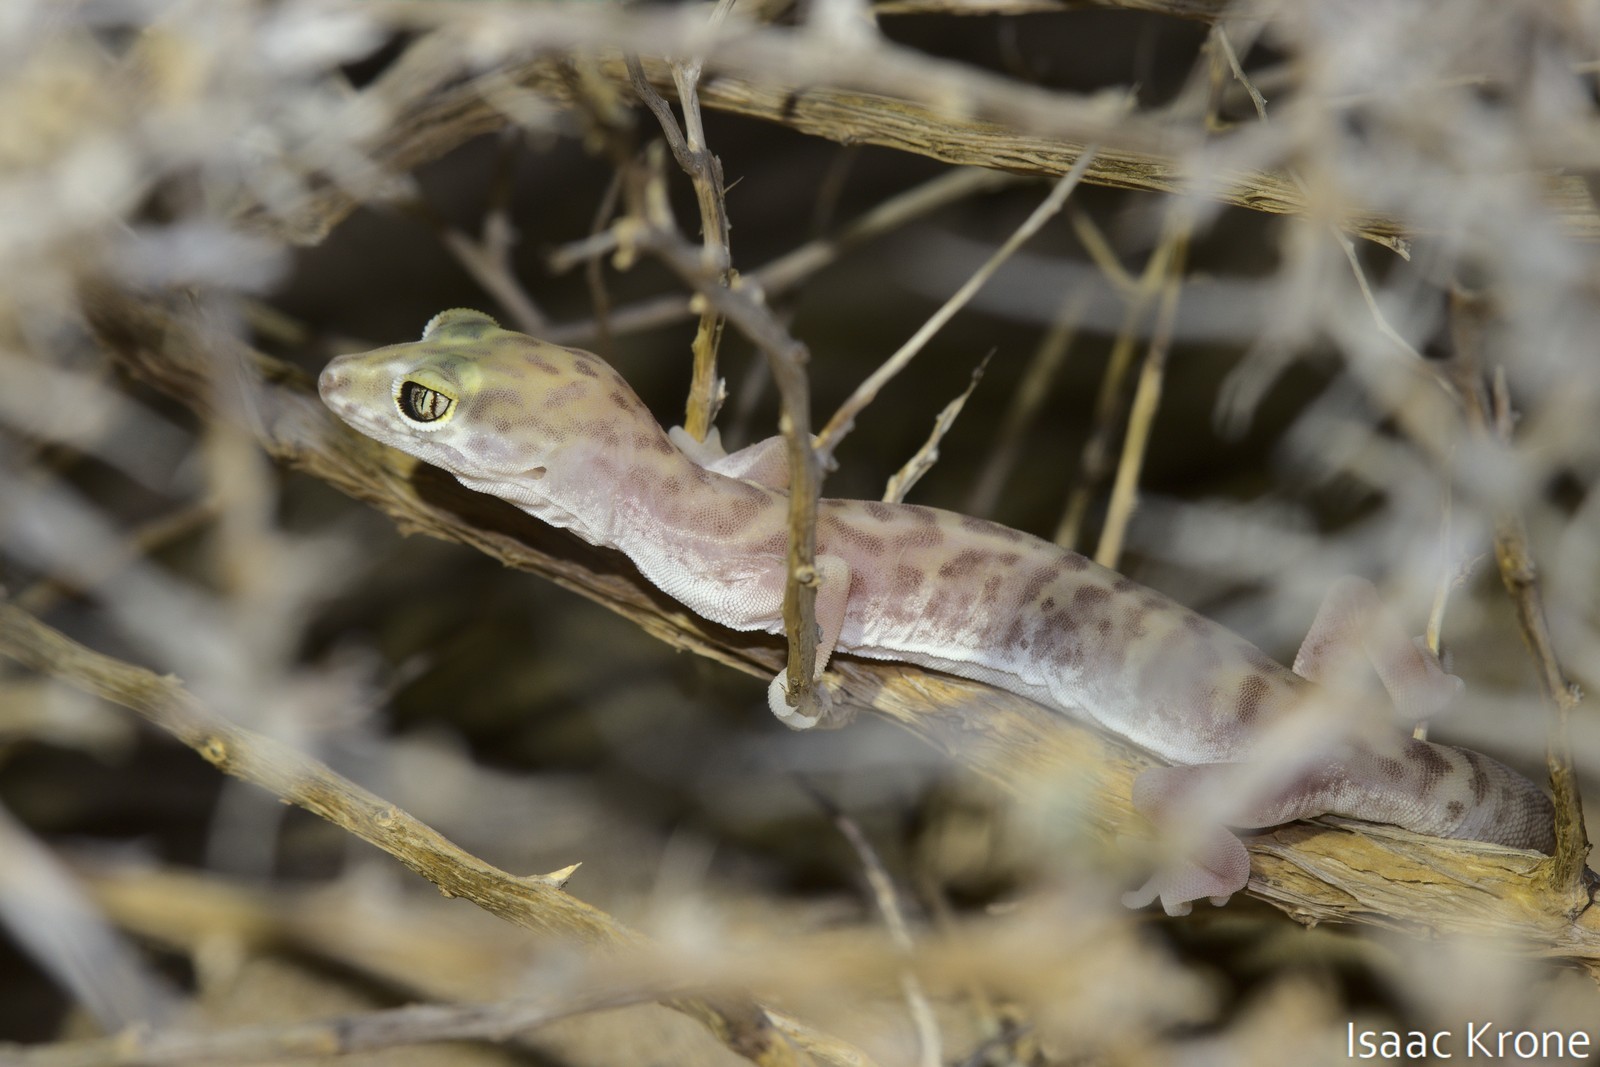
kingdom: Animalia
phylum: Chordata
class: Squamata
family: Eublepharidae
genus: Coleonyx
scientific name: Coleonyx variegatus
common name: Western banded gecko
